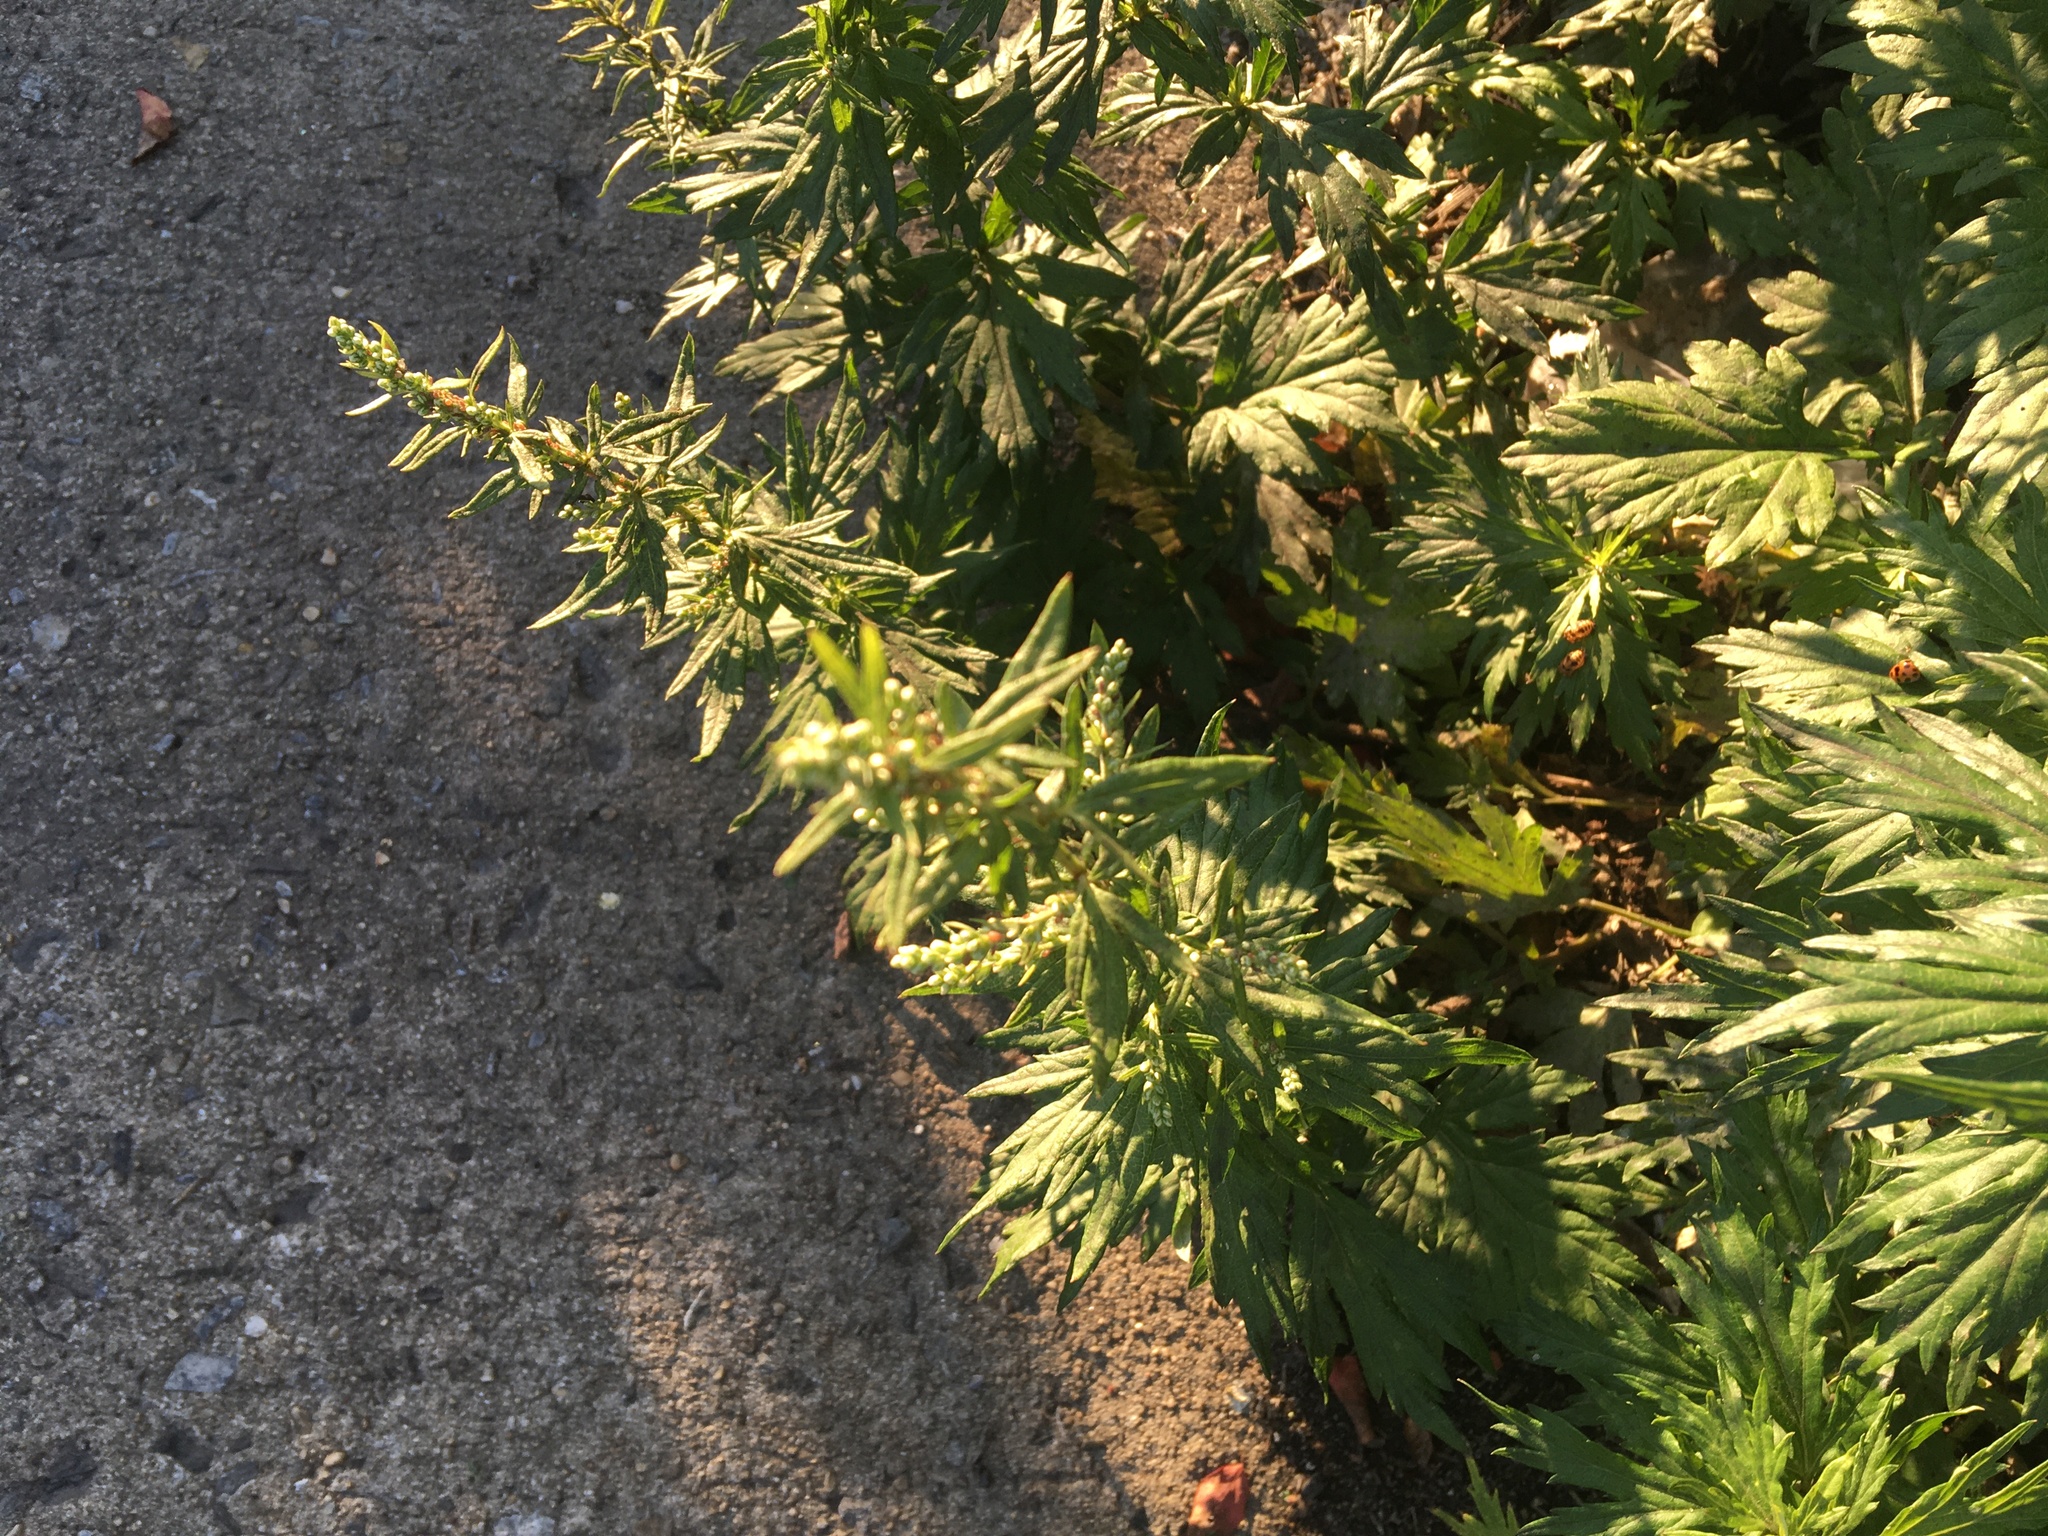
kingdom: Plantae
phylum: Tracheophyta
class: Magnoliopsida
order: Asterales
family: Asteraceae
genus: Artemisia
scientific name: Artemisia vulgaris
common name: Mugwort
